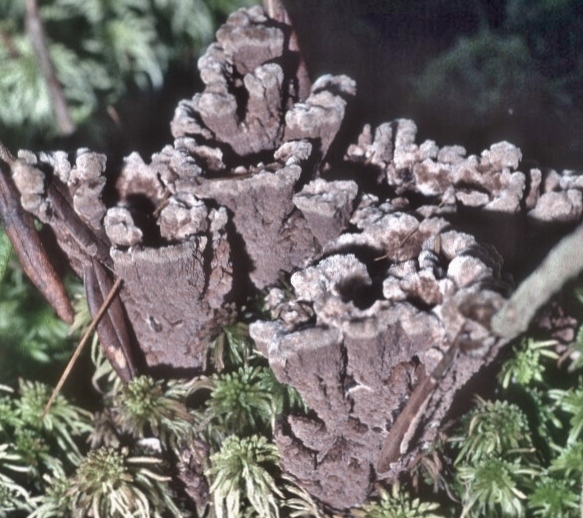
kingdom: Fungi
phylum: Basidiomycota
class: Agaricomycetes
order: Thelephorales
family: Thelephoraceae
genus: Thelephora
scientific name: Thelephora terrestris
